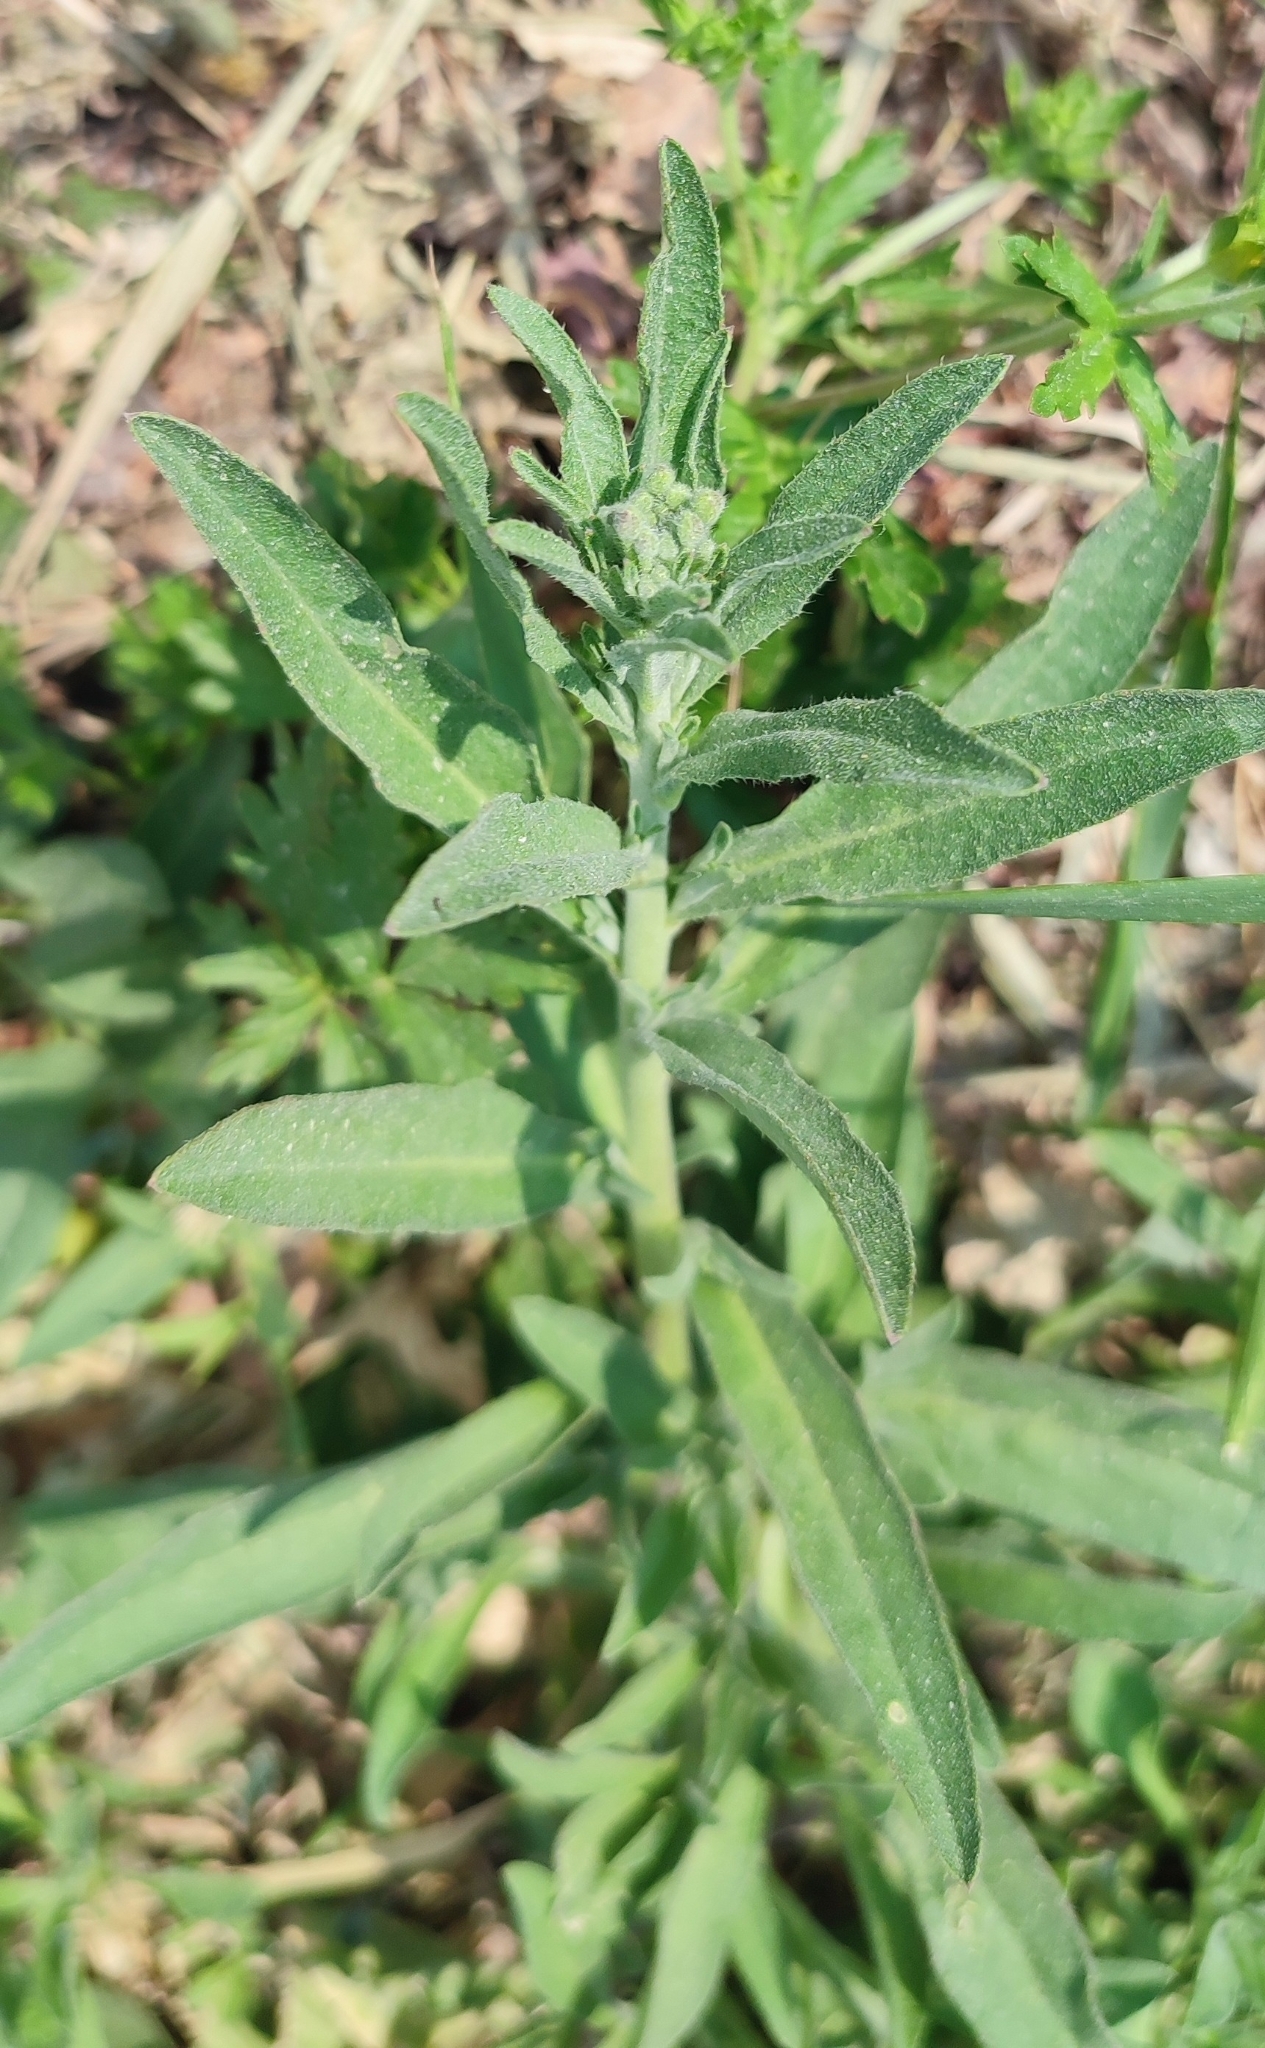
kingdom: Plantae
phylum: Tracheophyta
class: Magnoliopsida
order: Brassicales
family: Brassicaceae
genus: Berteroa
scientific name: Berteroa incana
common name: Hoary alison
